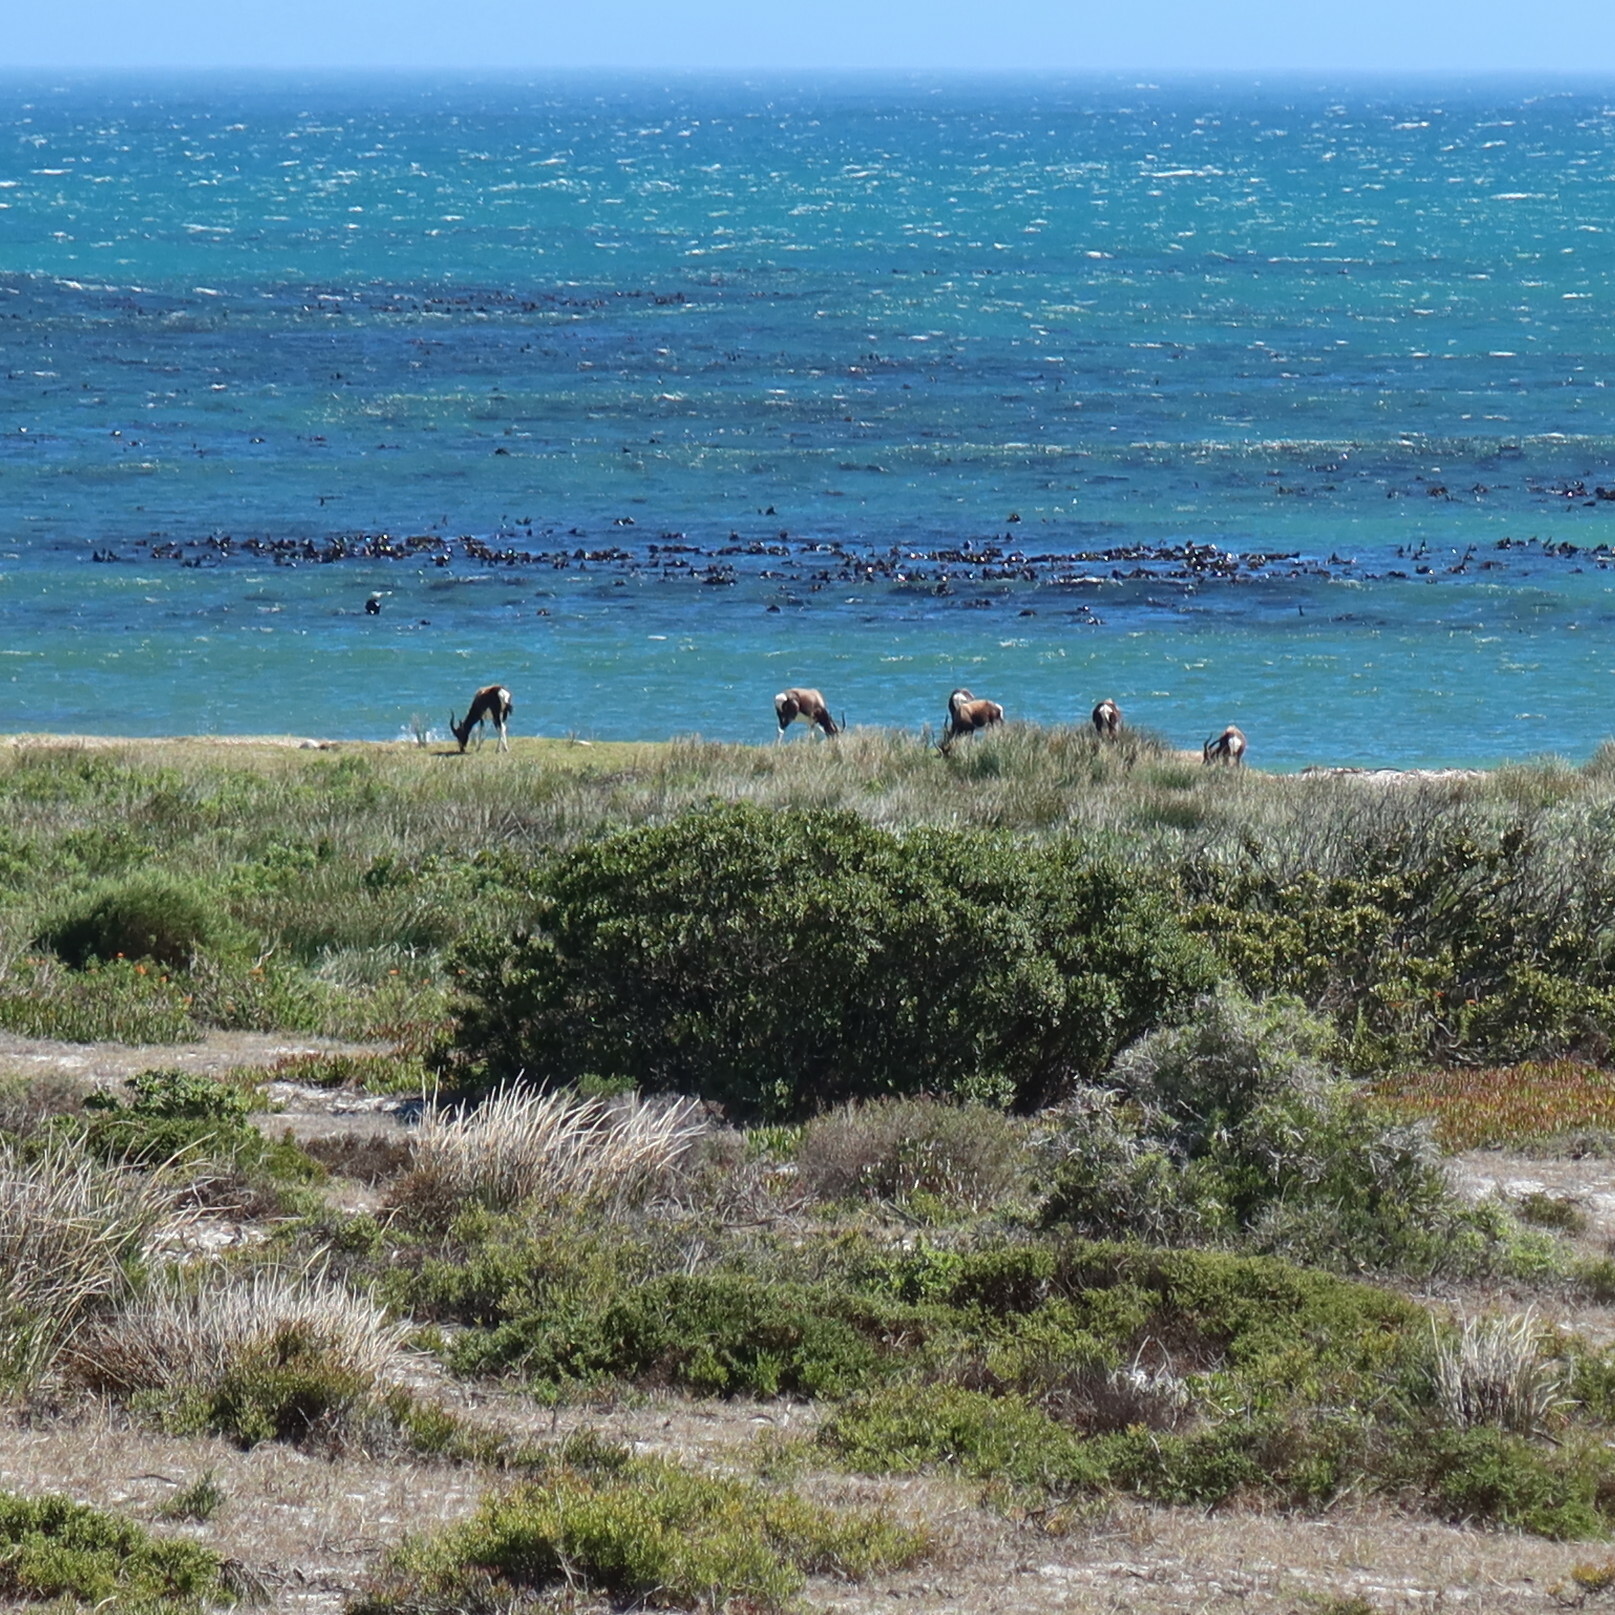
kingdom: Animalia
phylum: Chordata
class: Mammalia
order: Artiodactyla
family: Bovidae
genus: Damaliscus
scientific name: Damaliscus pygargus
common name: Bontebok
